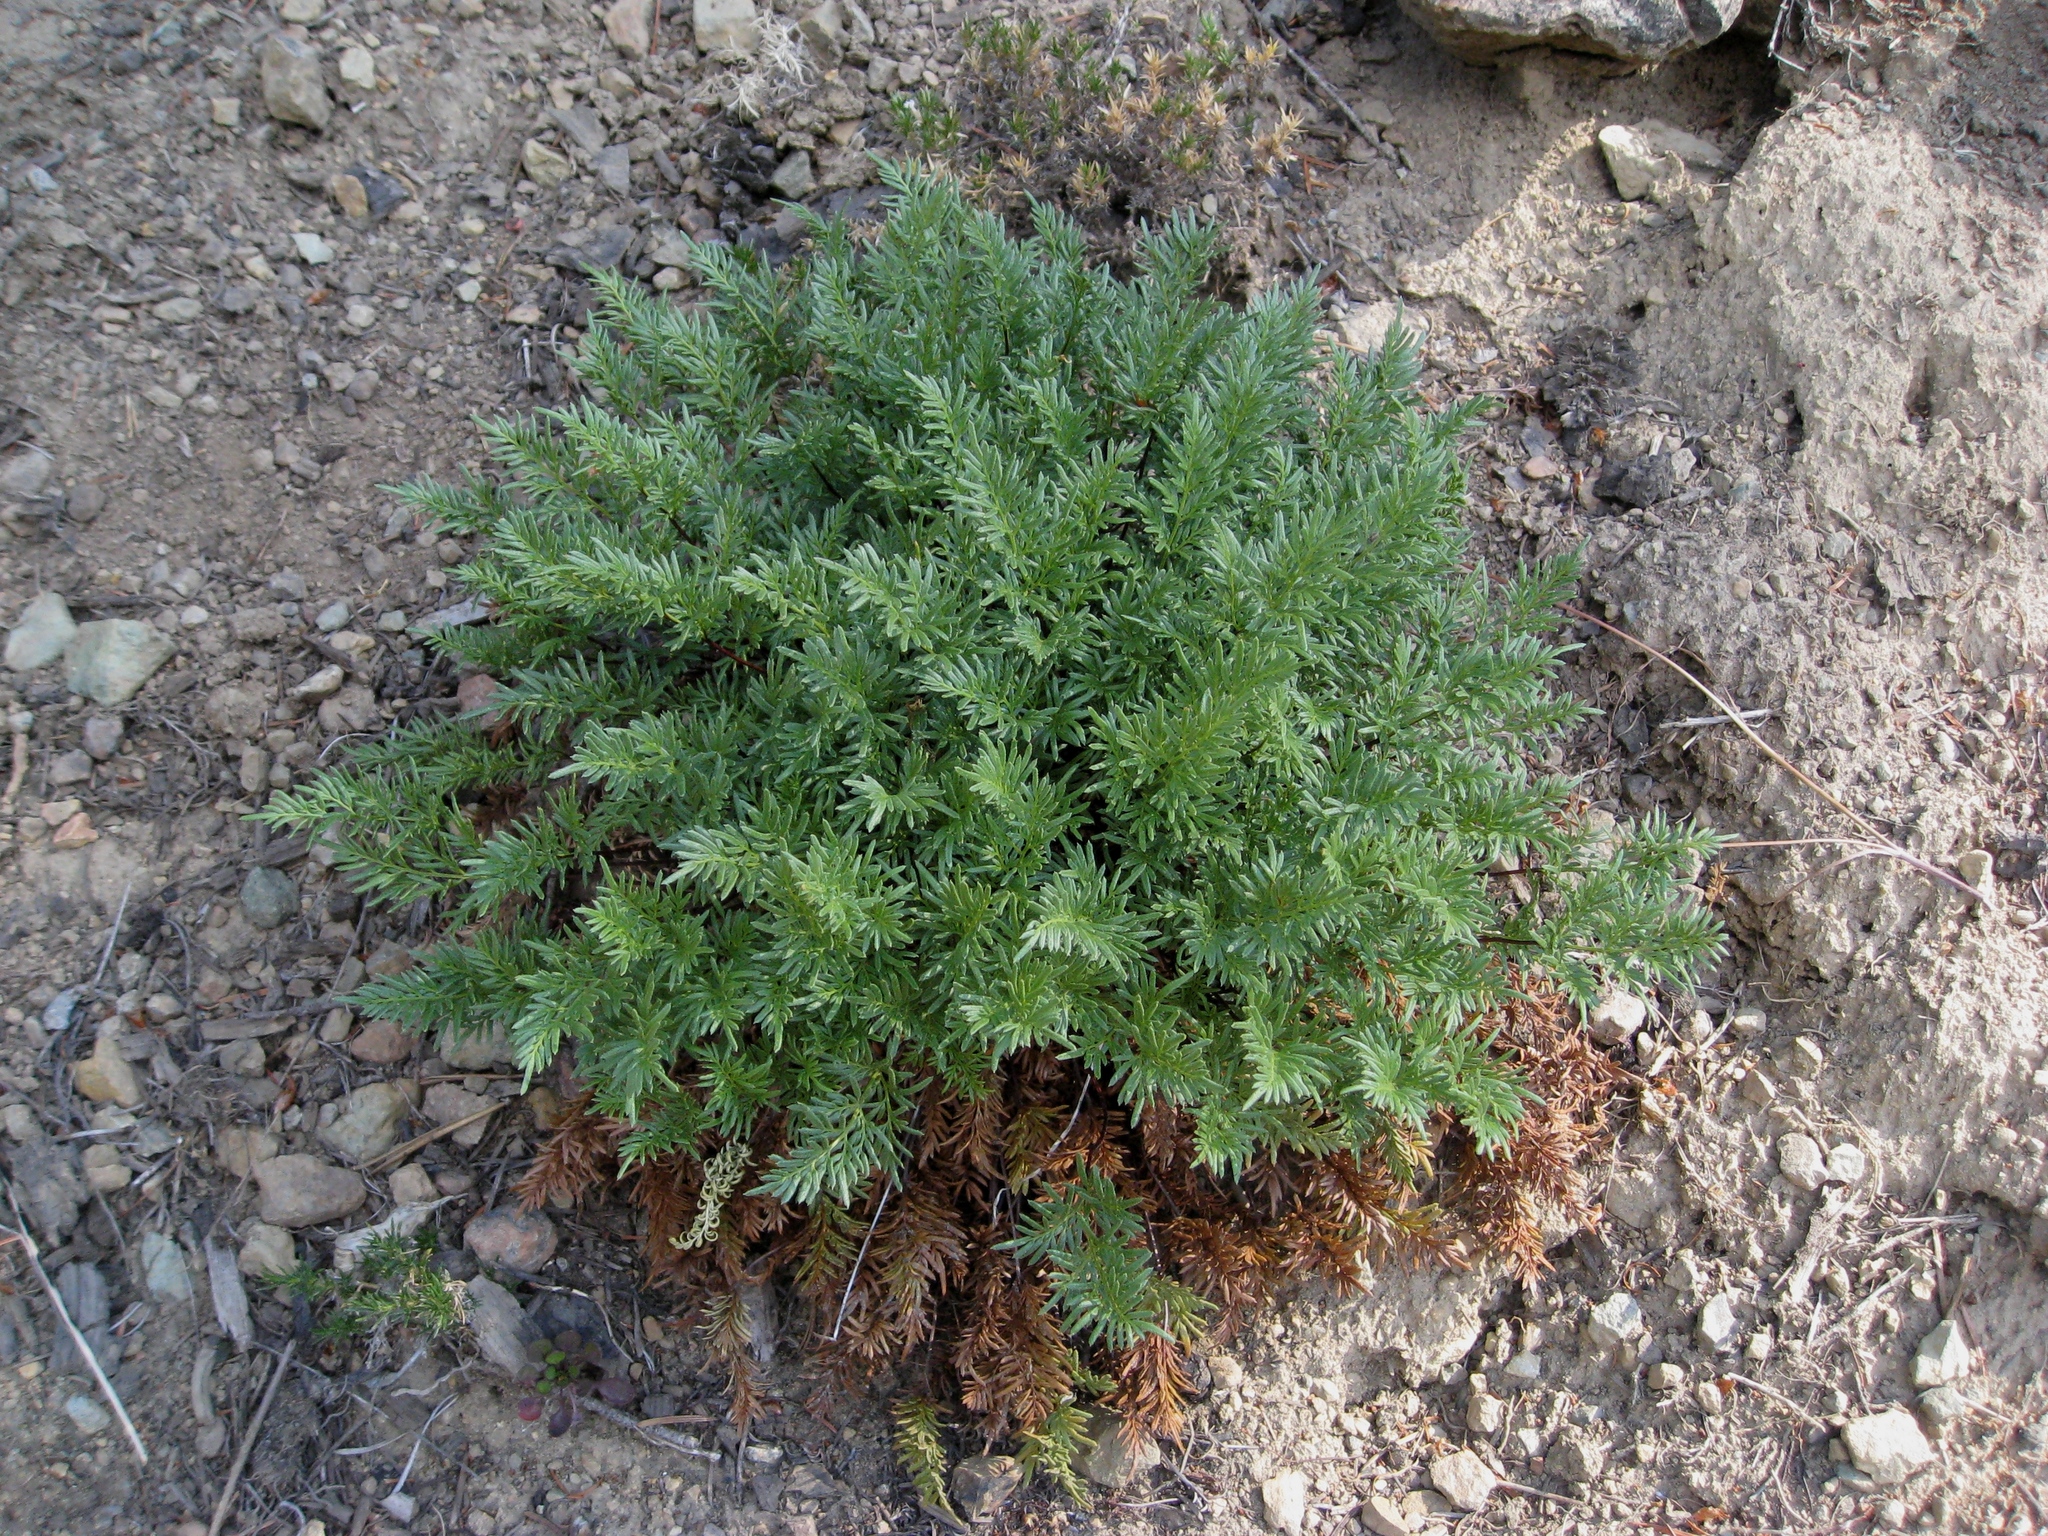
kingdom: Plantae
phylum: Tracheophyta
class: Polypodiopsida
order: Polypodiales
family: Pteridaceae
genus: Aspidotis
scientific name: Aspidotis densa
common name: Indian's dream
